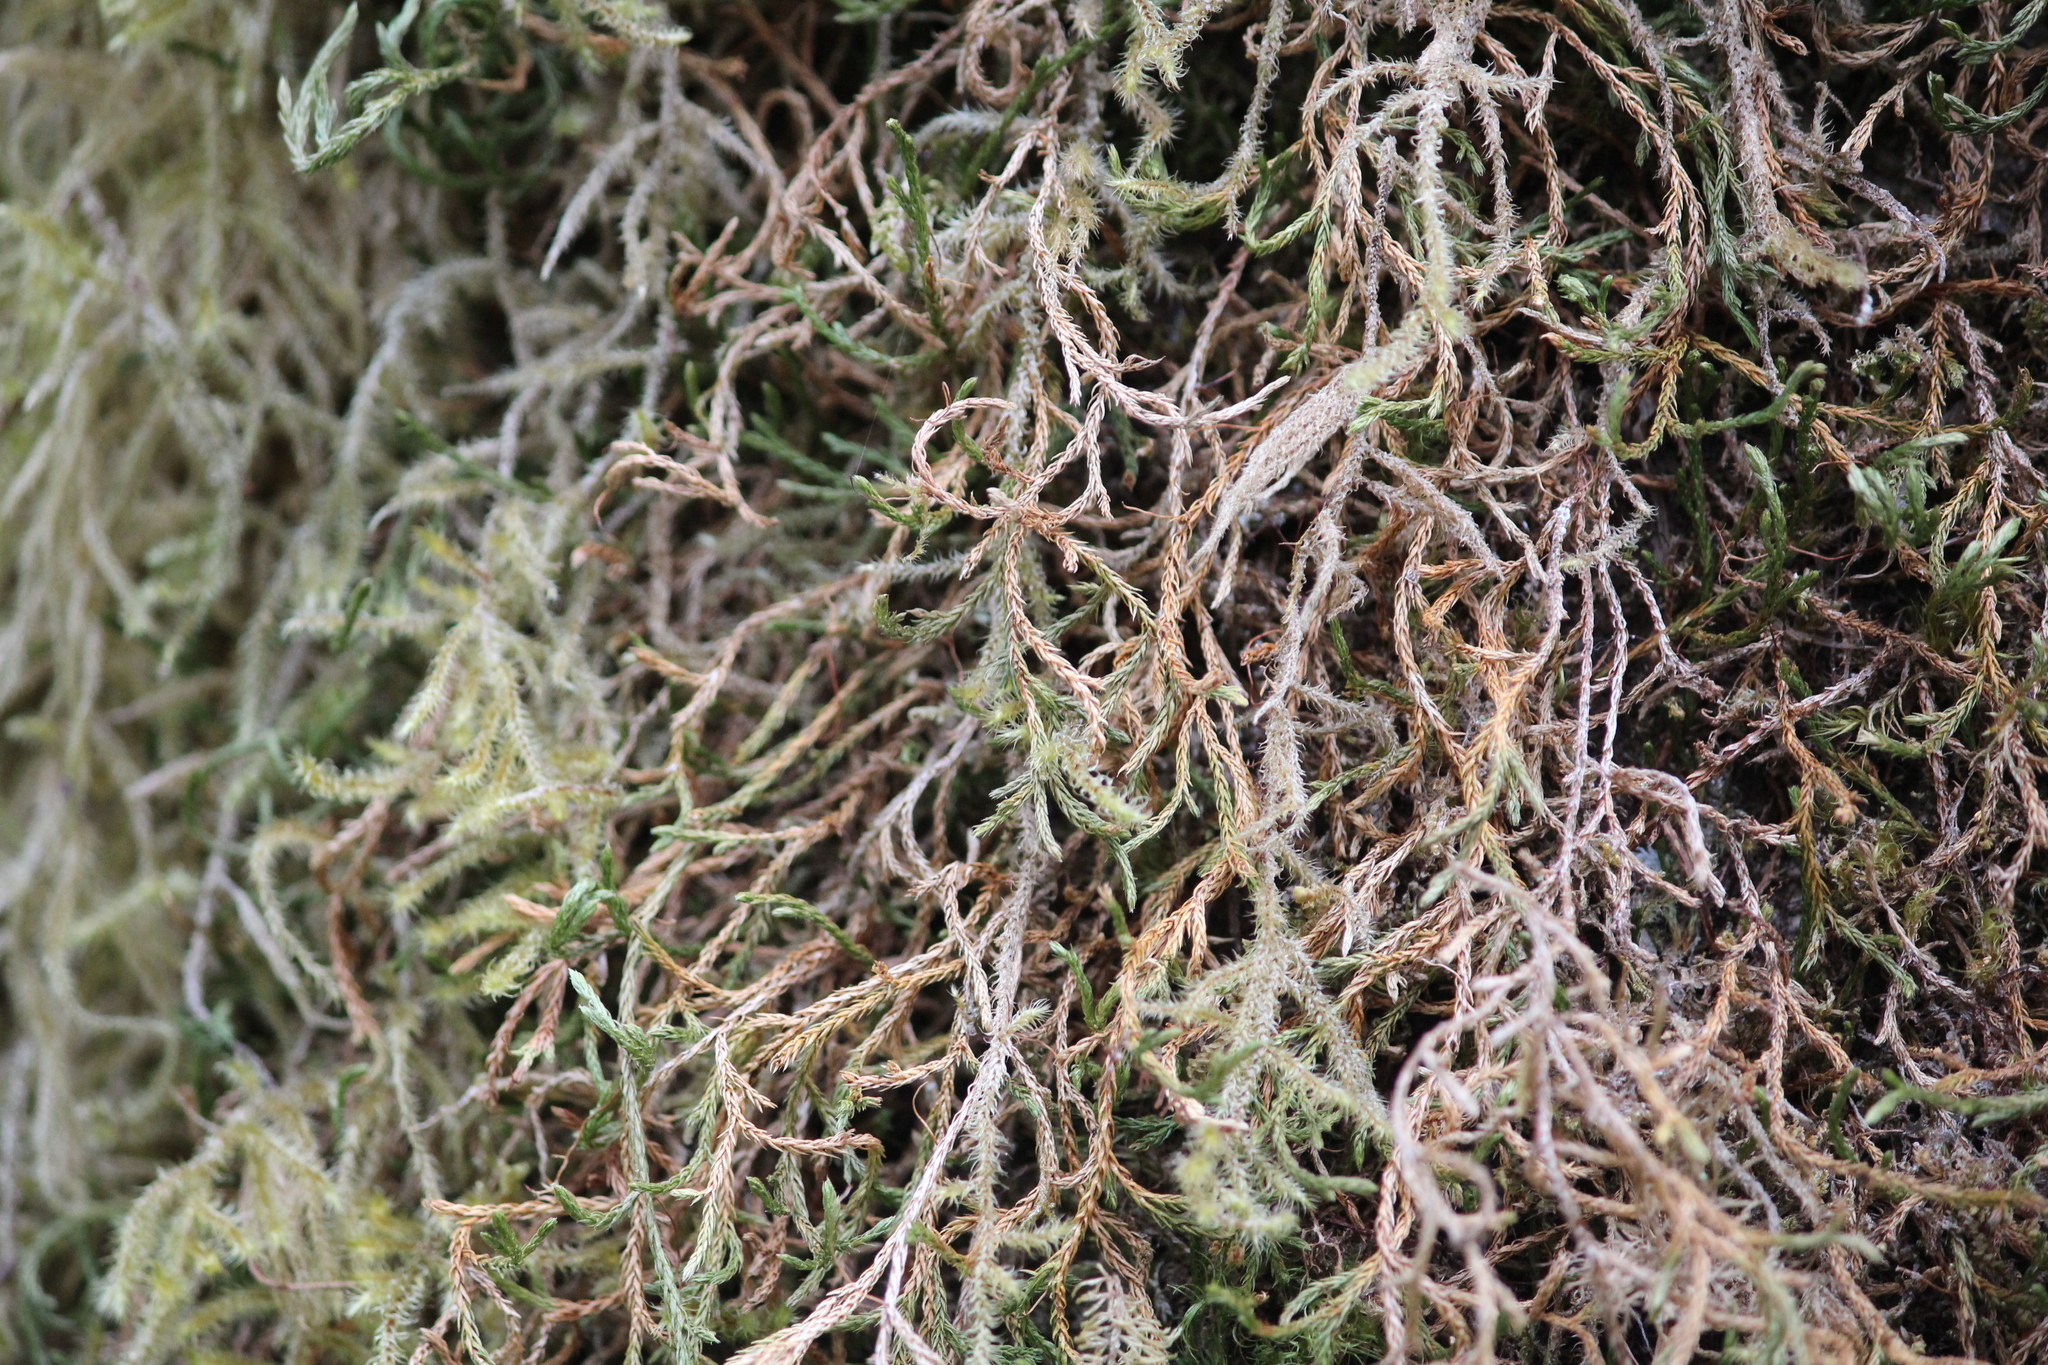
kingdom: Plantae
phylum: Tracheophyta
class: Lycopodiopsida
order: Selaginellales
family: Selaginellaceae
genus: Selaginella
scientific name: Selaginella oregana
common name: Oregon selaginella
